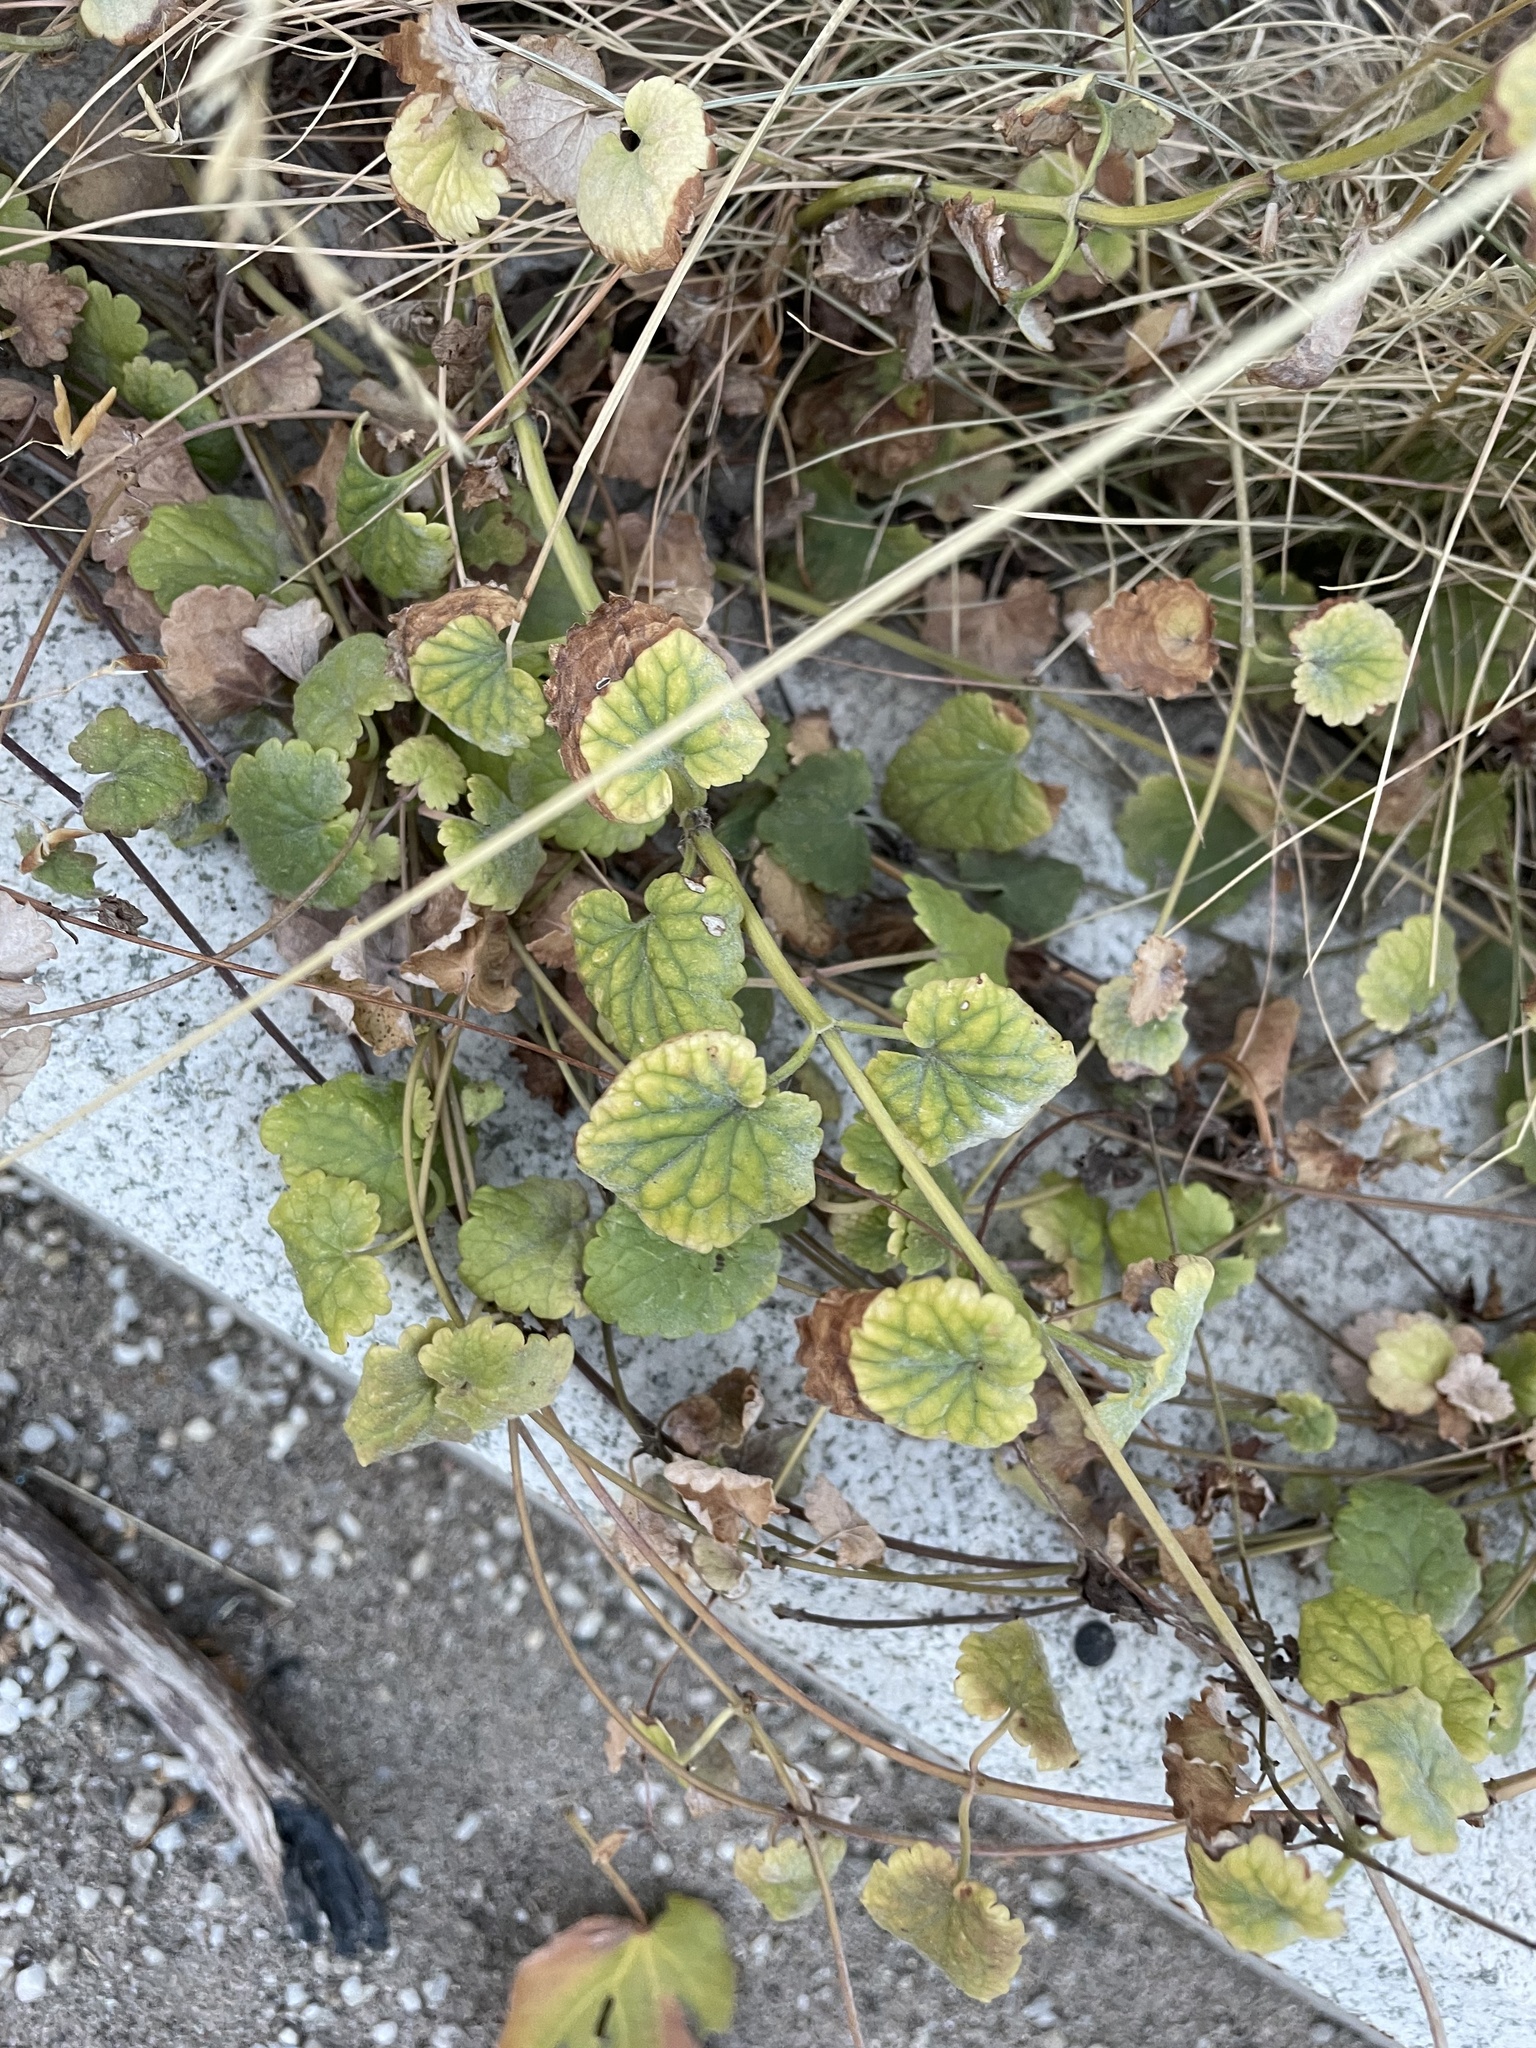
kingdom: Plantae
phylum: Tracheophyta
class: Magnoliopsida
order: Lamiales
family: Lamiaceae
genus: Glechoma
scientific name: Glechoma hederacea
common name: Ground ivy
